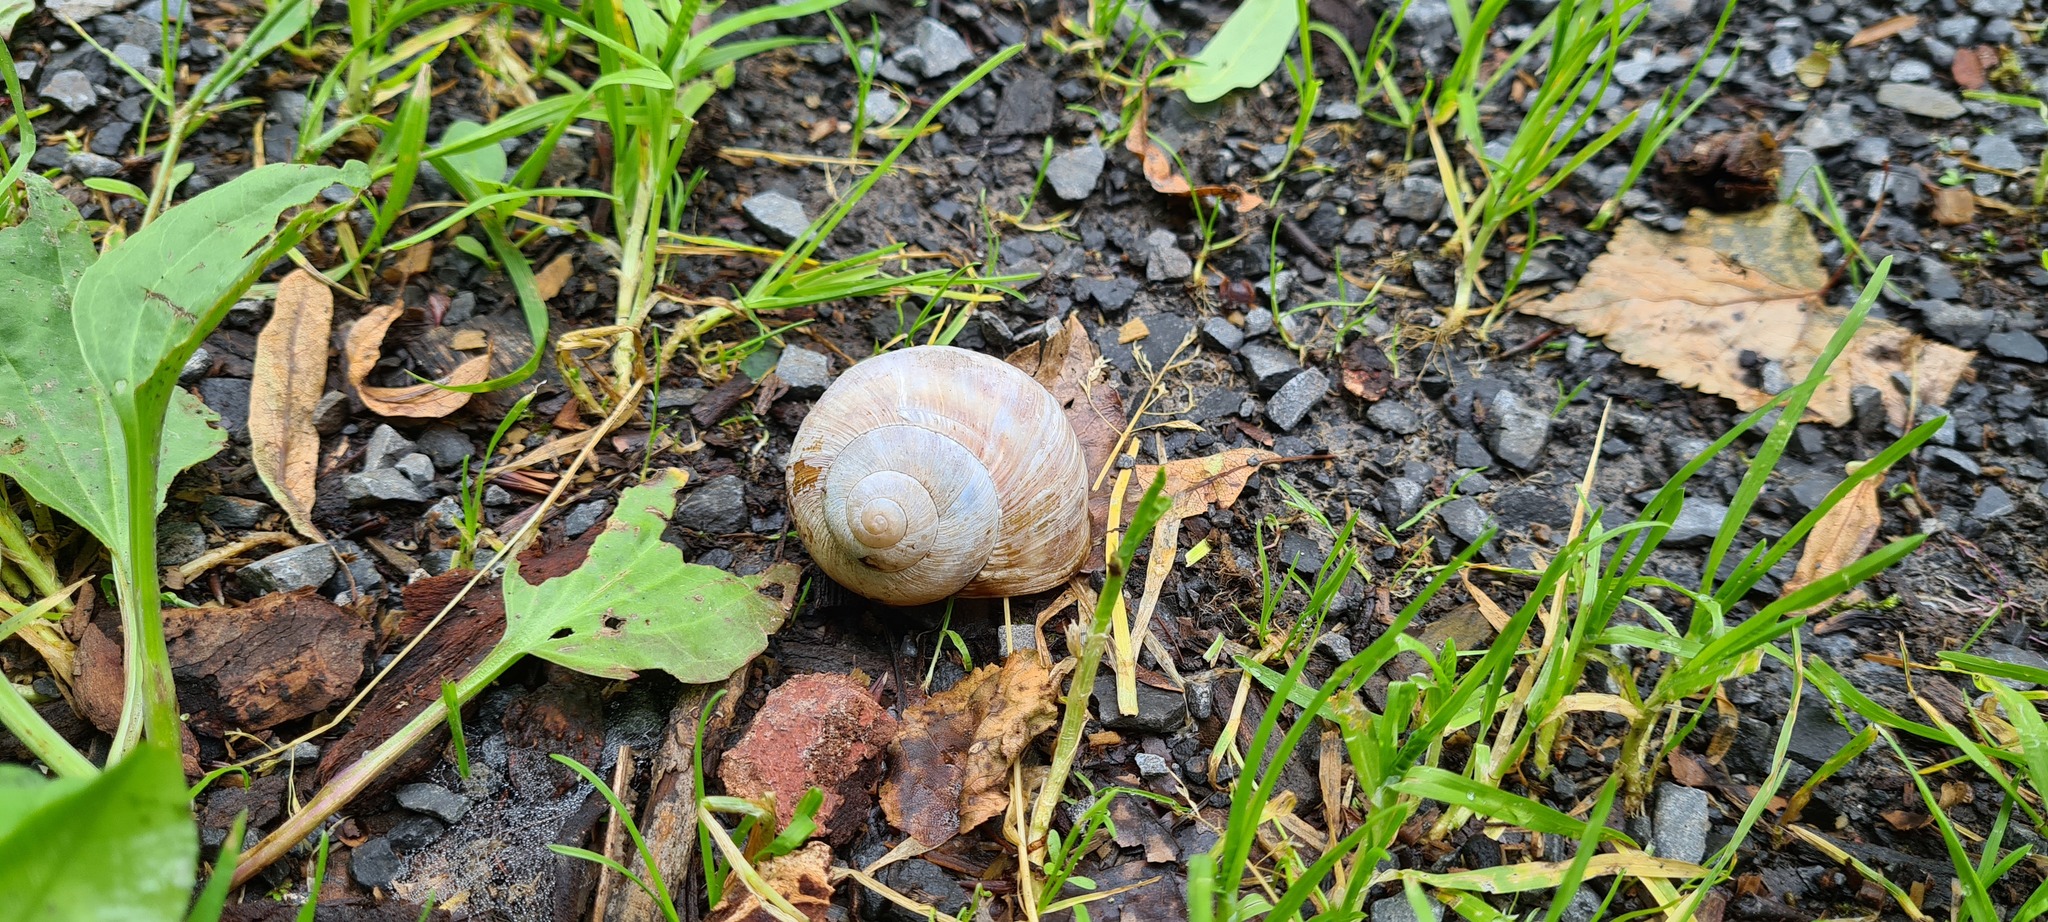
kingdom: Animalia
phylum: Mollusca
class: Gastropoda
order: Stylommatophora
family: Helicidae
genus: Helix
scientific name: Helix pomatia
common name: Roman snail
